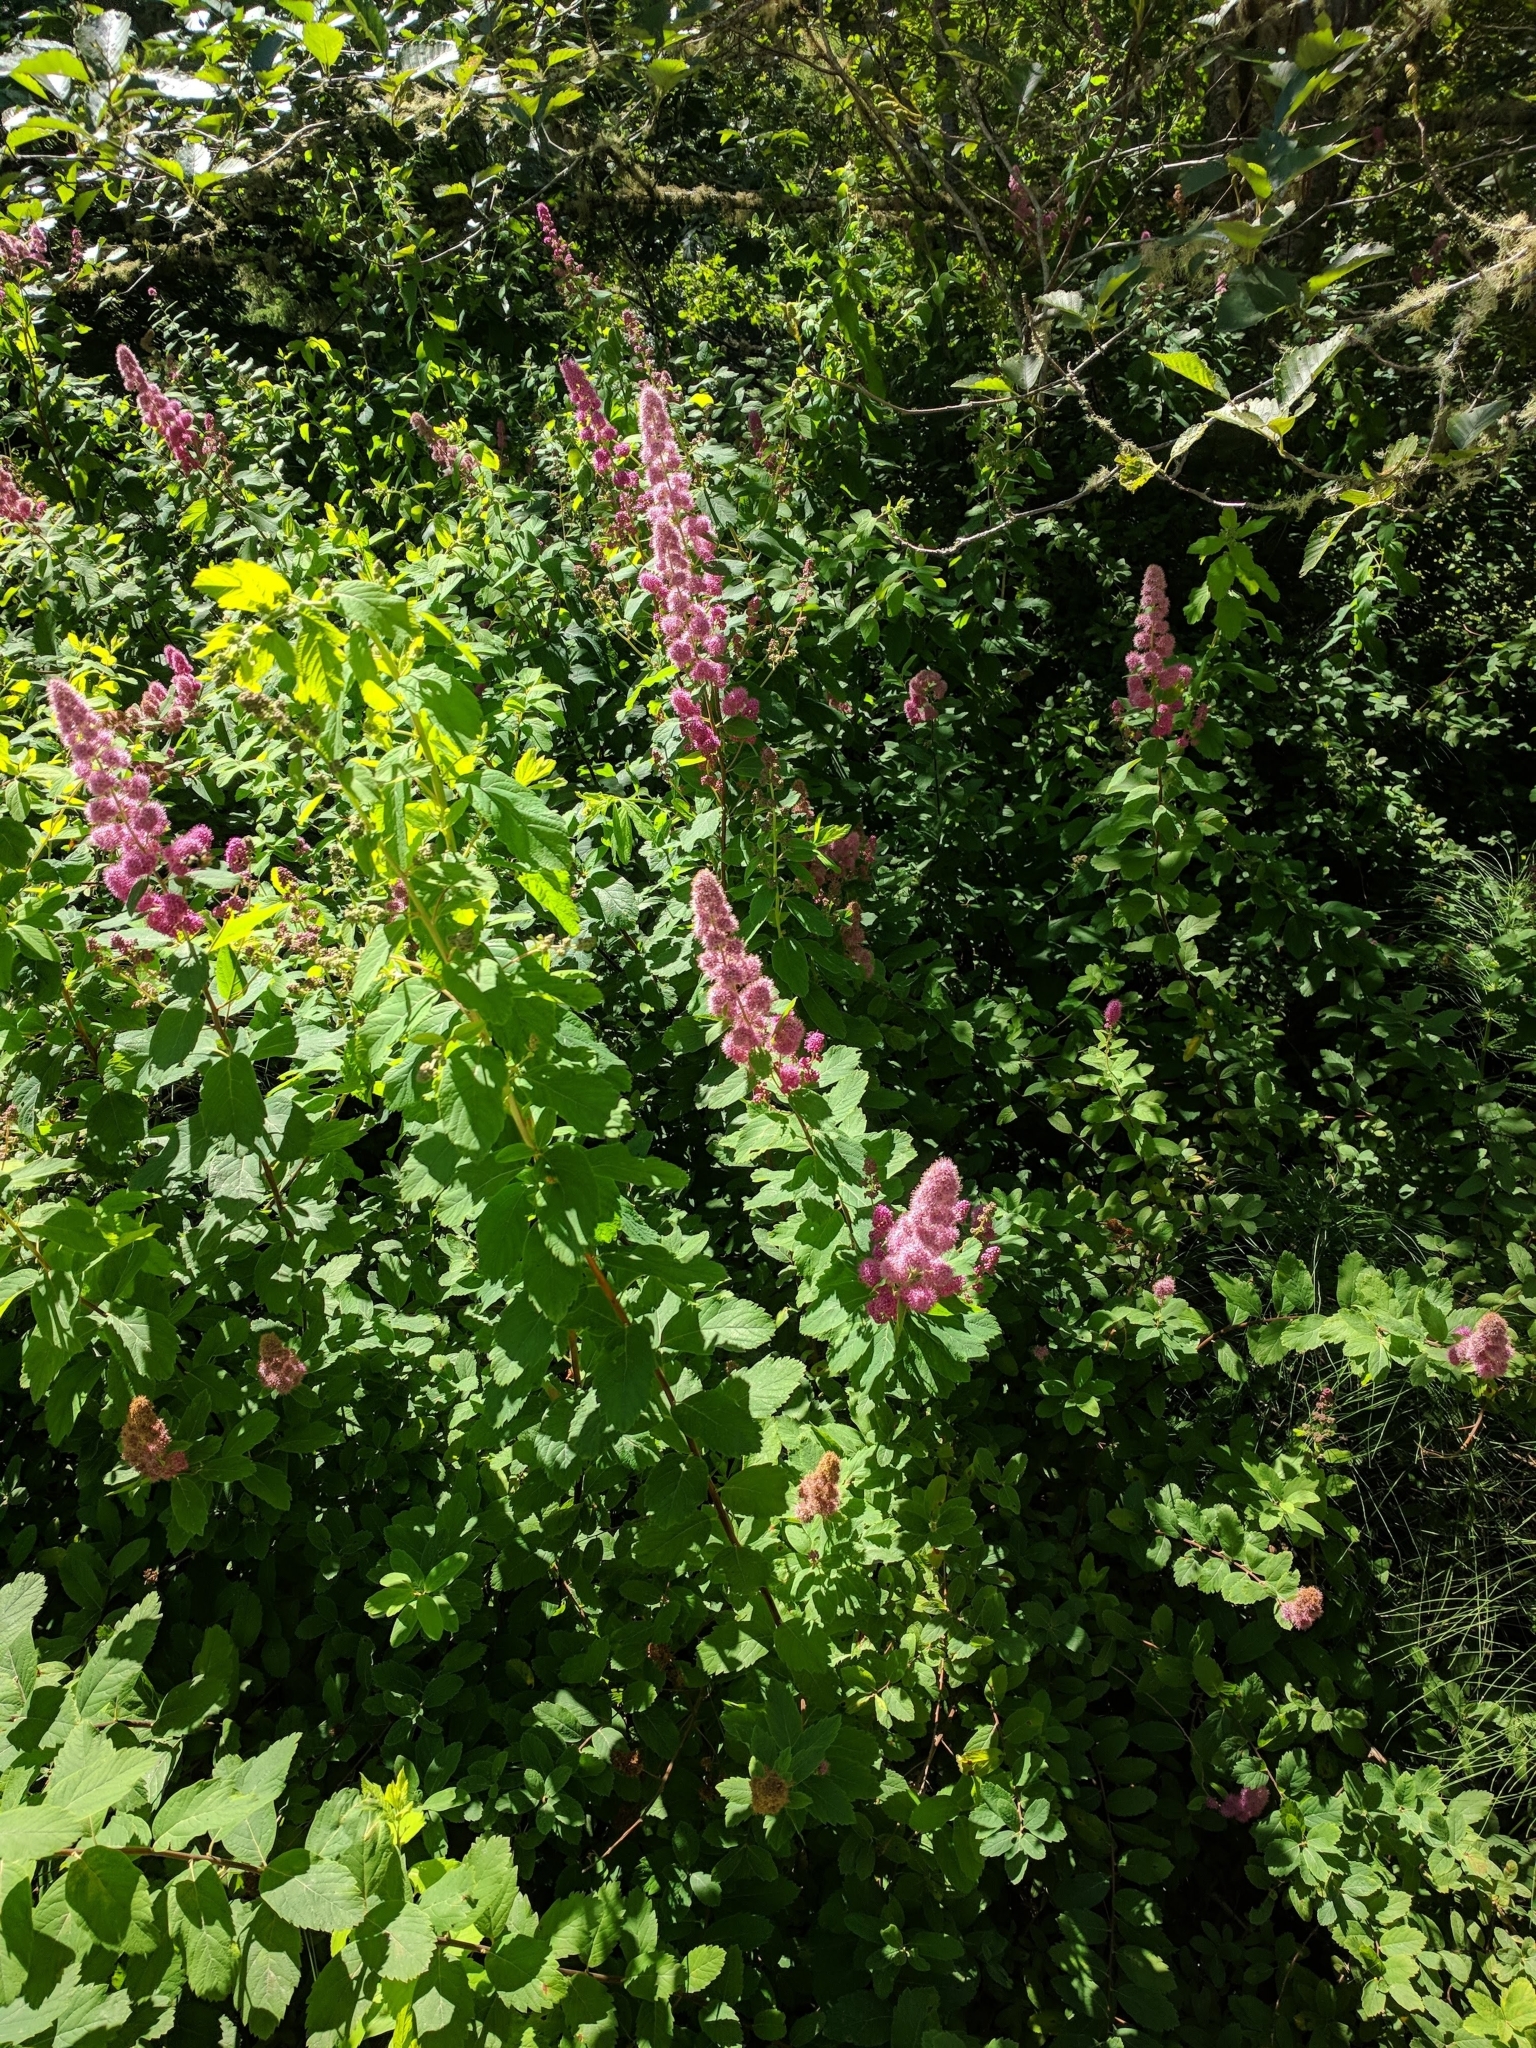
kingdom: Plantae
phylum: Tracheophyta
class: Magnoliopsida
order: Rosales
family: Rosaceae
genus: Spiraea
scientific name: Spiraea douglasii
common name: Steeplebush
